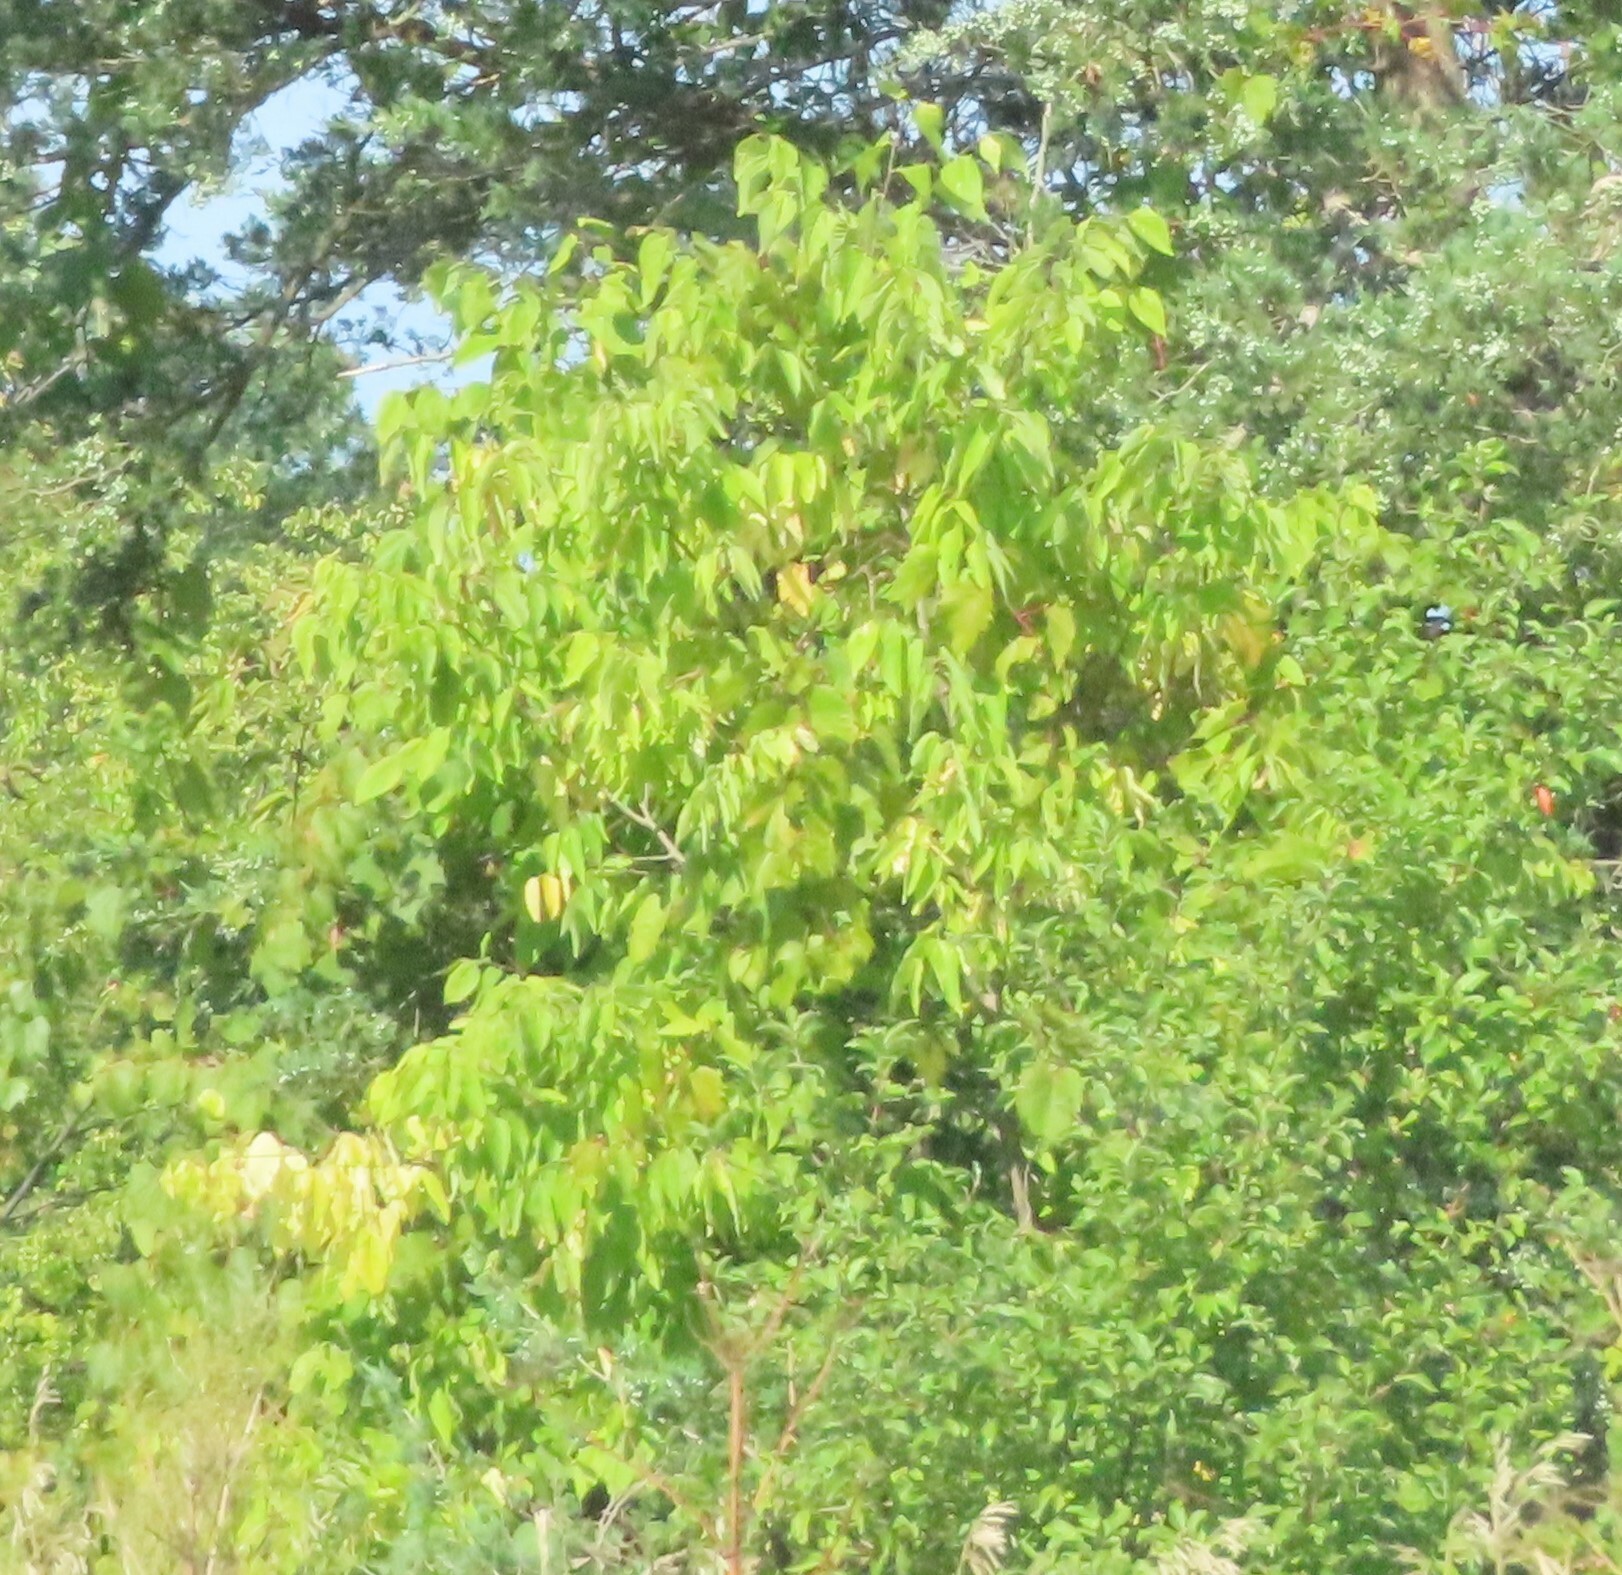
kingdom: Plantae
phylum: Tracheophyta
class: Magnoliopsida
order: Sapindales
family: Sapindaceae
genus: Acer
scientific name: Acer negundo
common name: Ashleaf maple
